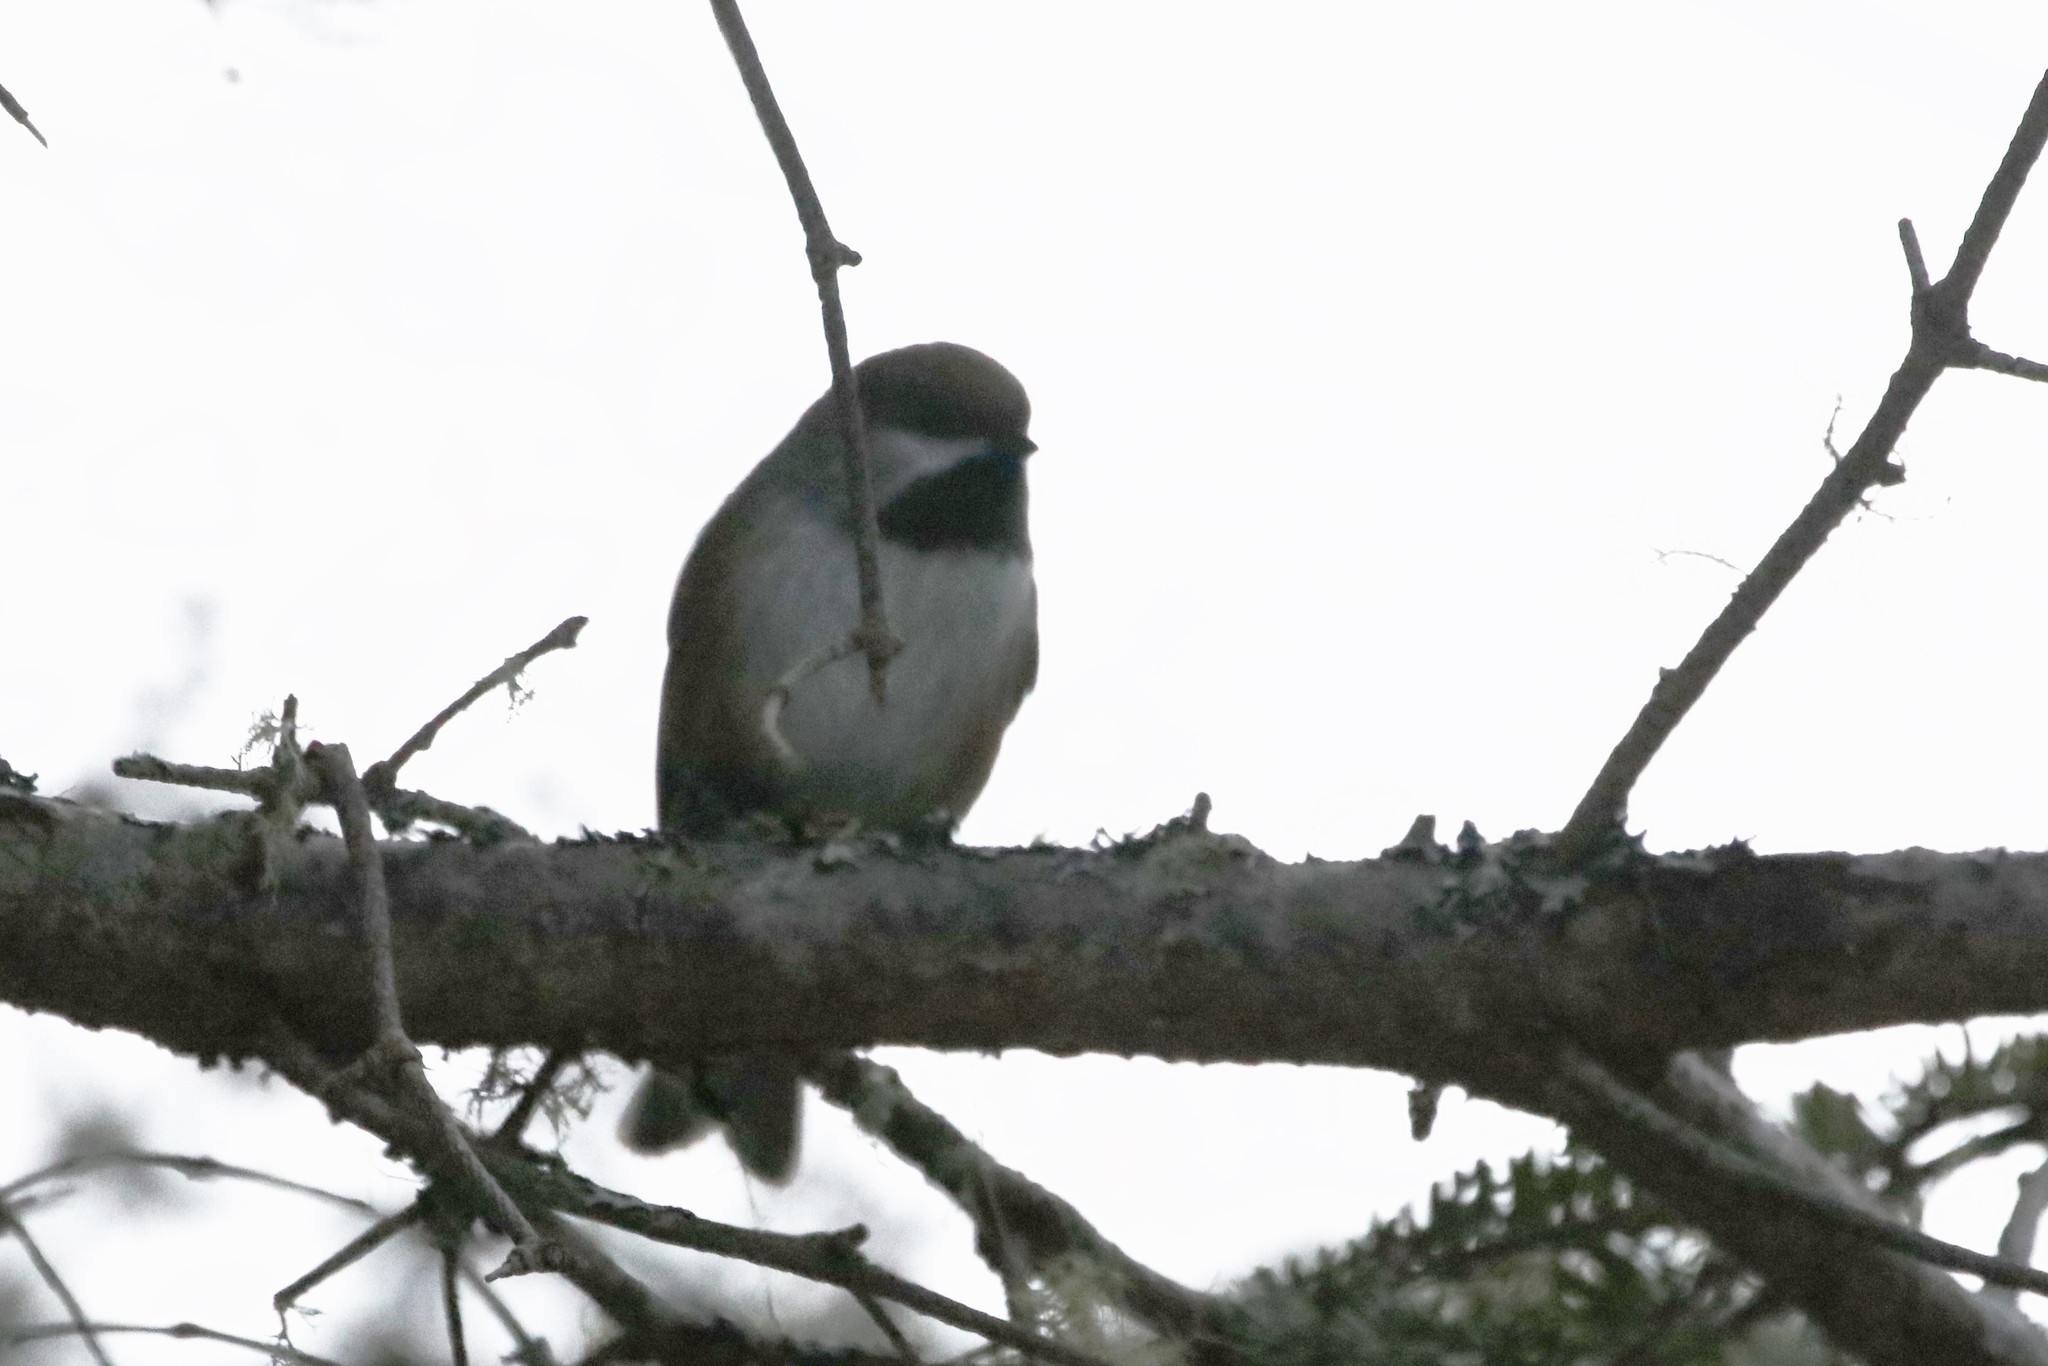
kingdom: Animalia
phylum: Chordata
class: Aves
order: Passeriformes
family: Paridae
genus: Poecile
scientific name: Poecile hudsonicus
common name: Boreal chickadee
